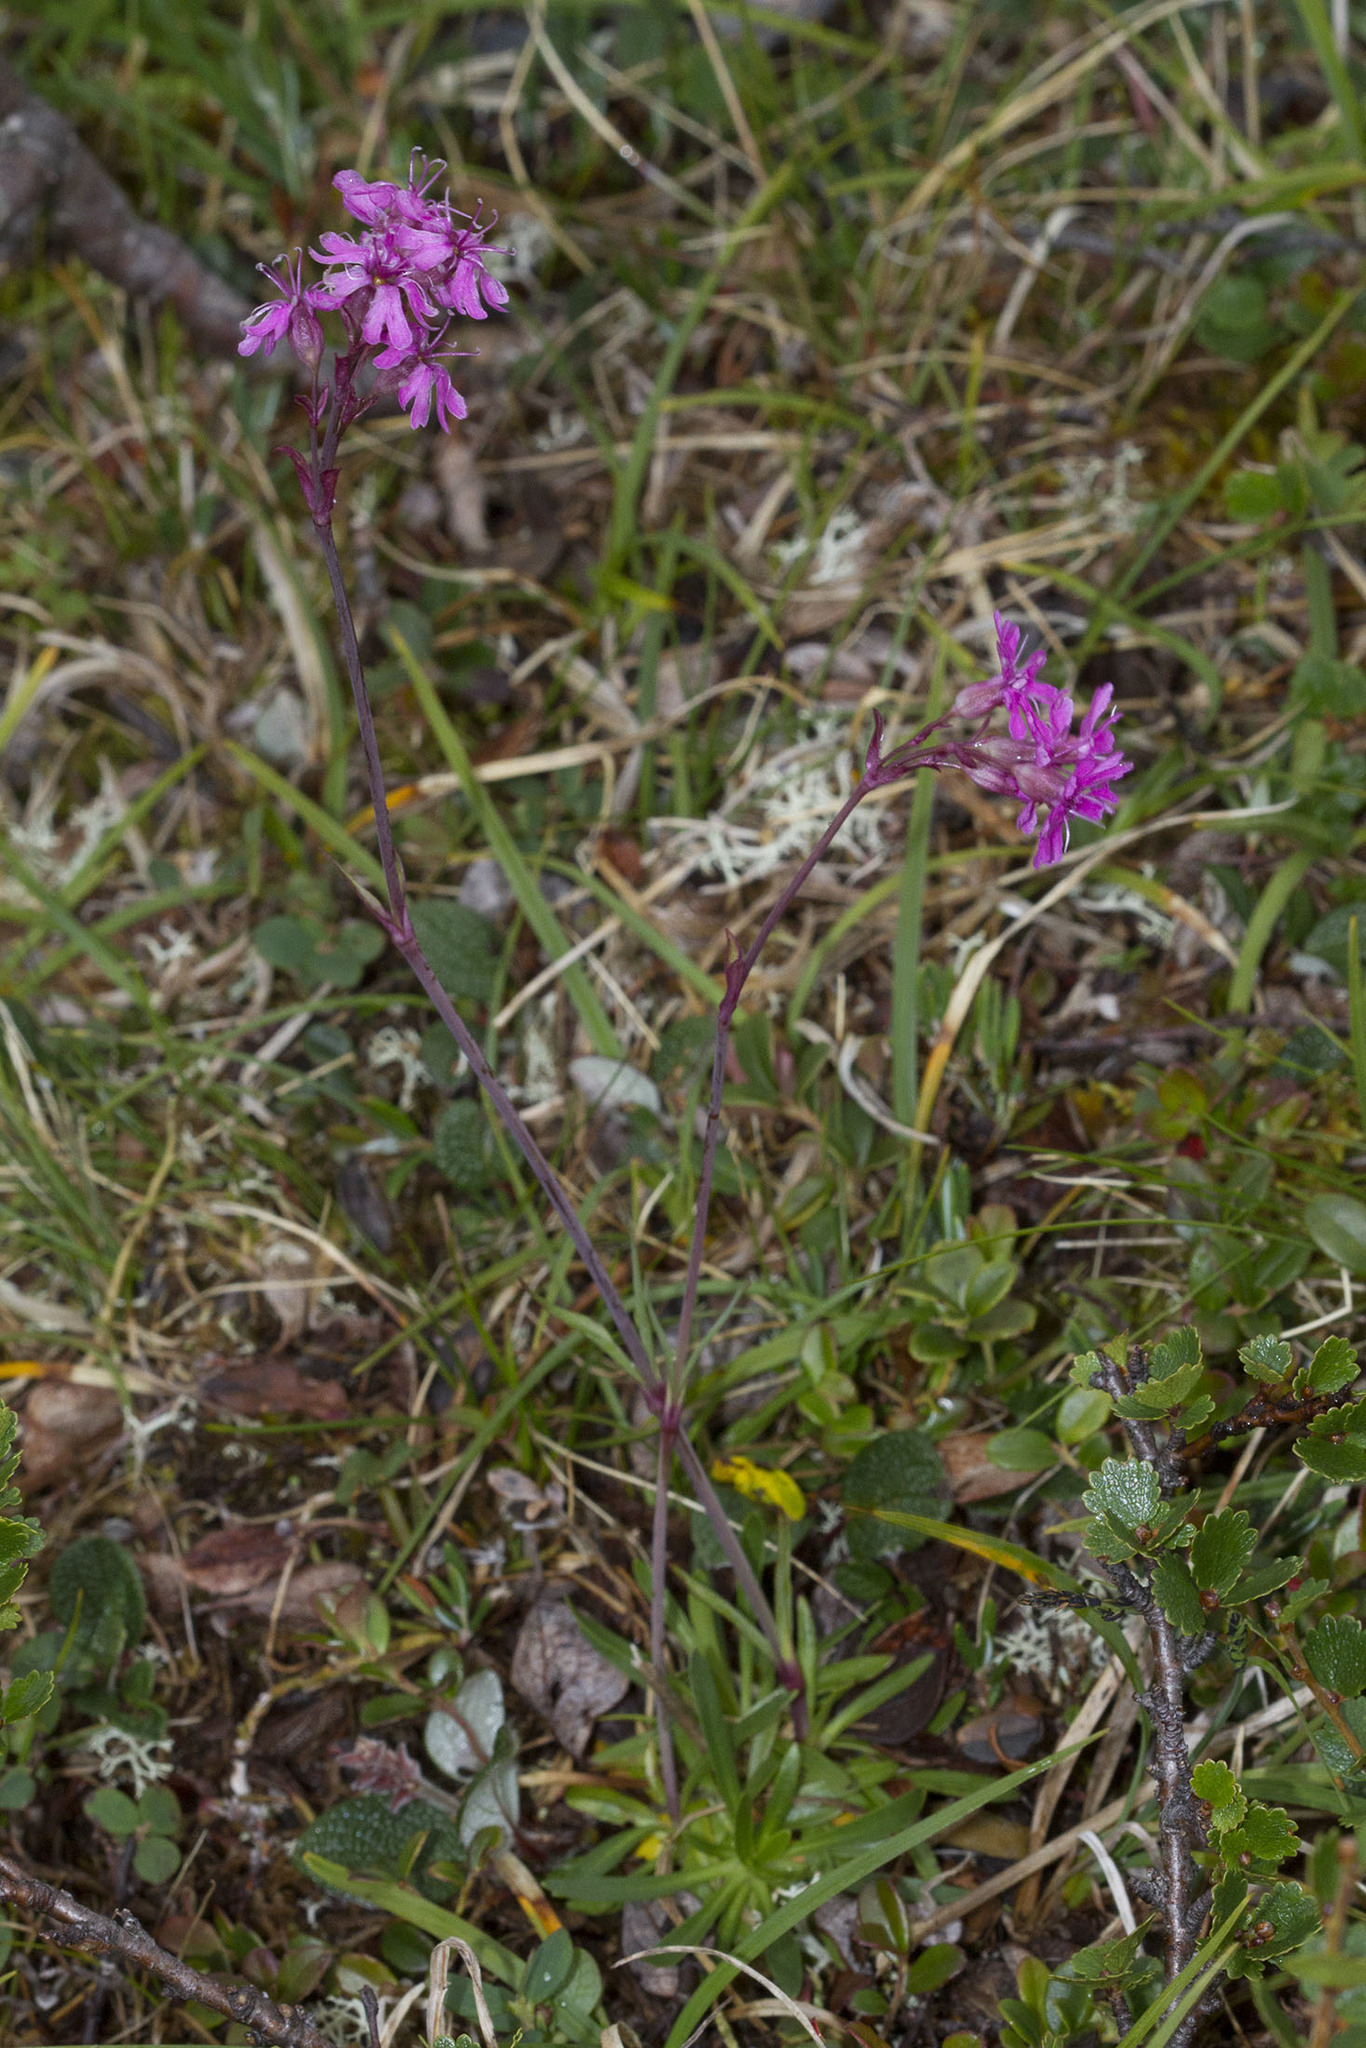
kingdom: Plantae
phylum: Tracheophyta
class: Magnoliopsida
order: Caryophyllales
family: Caryophyllaceae
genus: Viscaria
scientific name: Viscaria alpina
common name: Alpine campion
